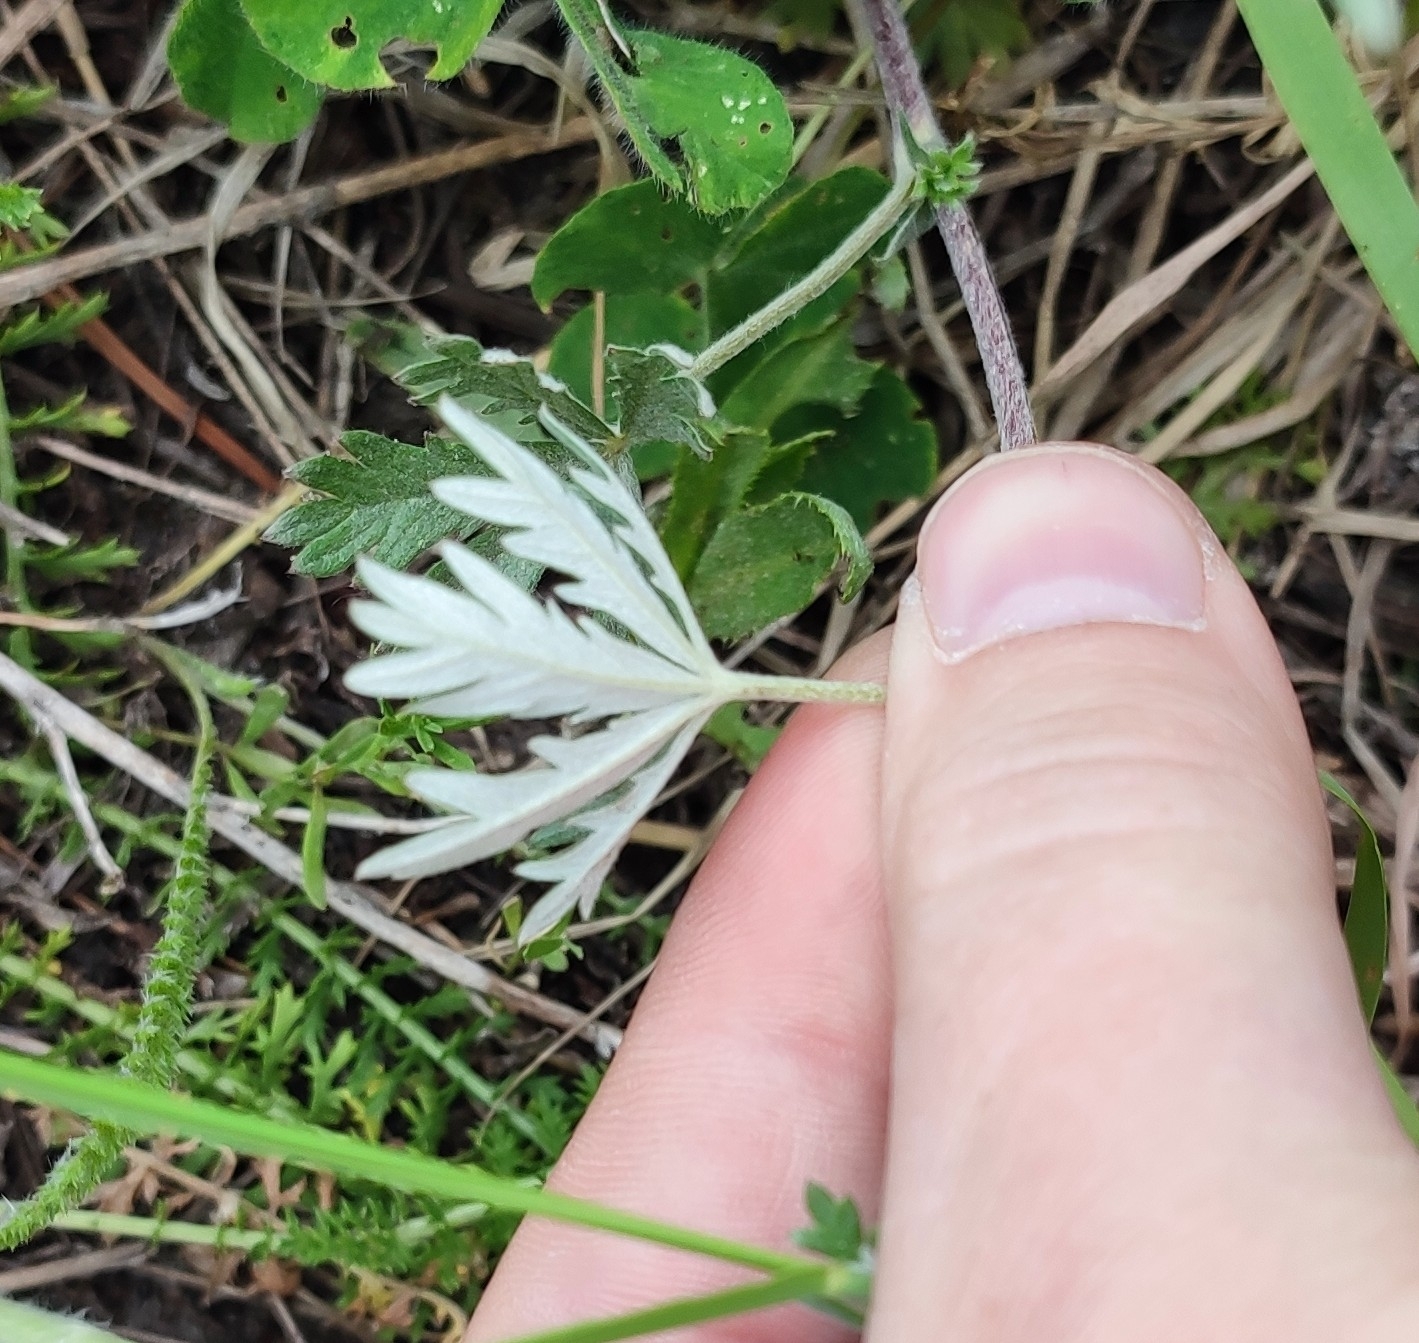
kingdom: Plantae
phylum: Tracheophyta
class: Magnoliopsida
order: Rosales
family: Rosaceae
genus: Potentilla
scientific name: Potentilla argentea
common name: Hoary cinquefoil
